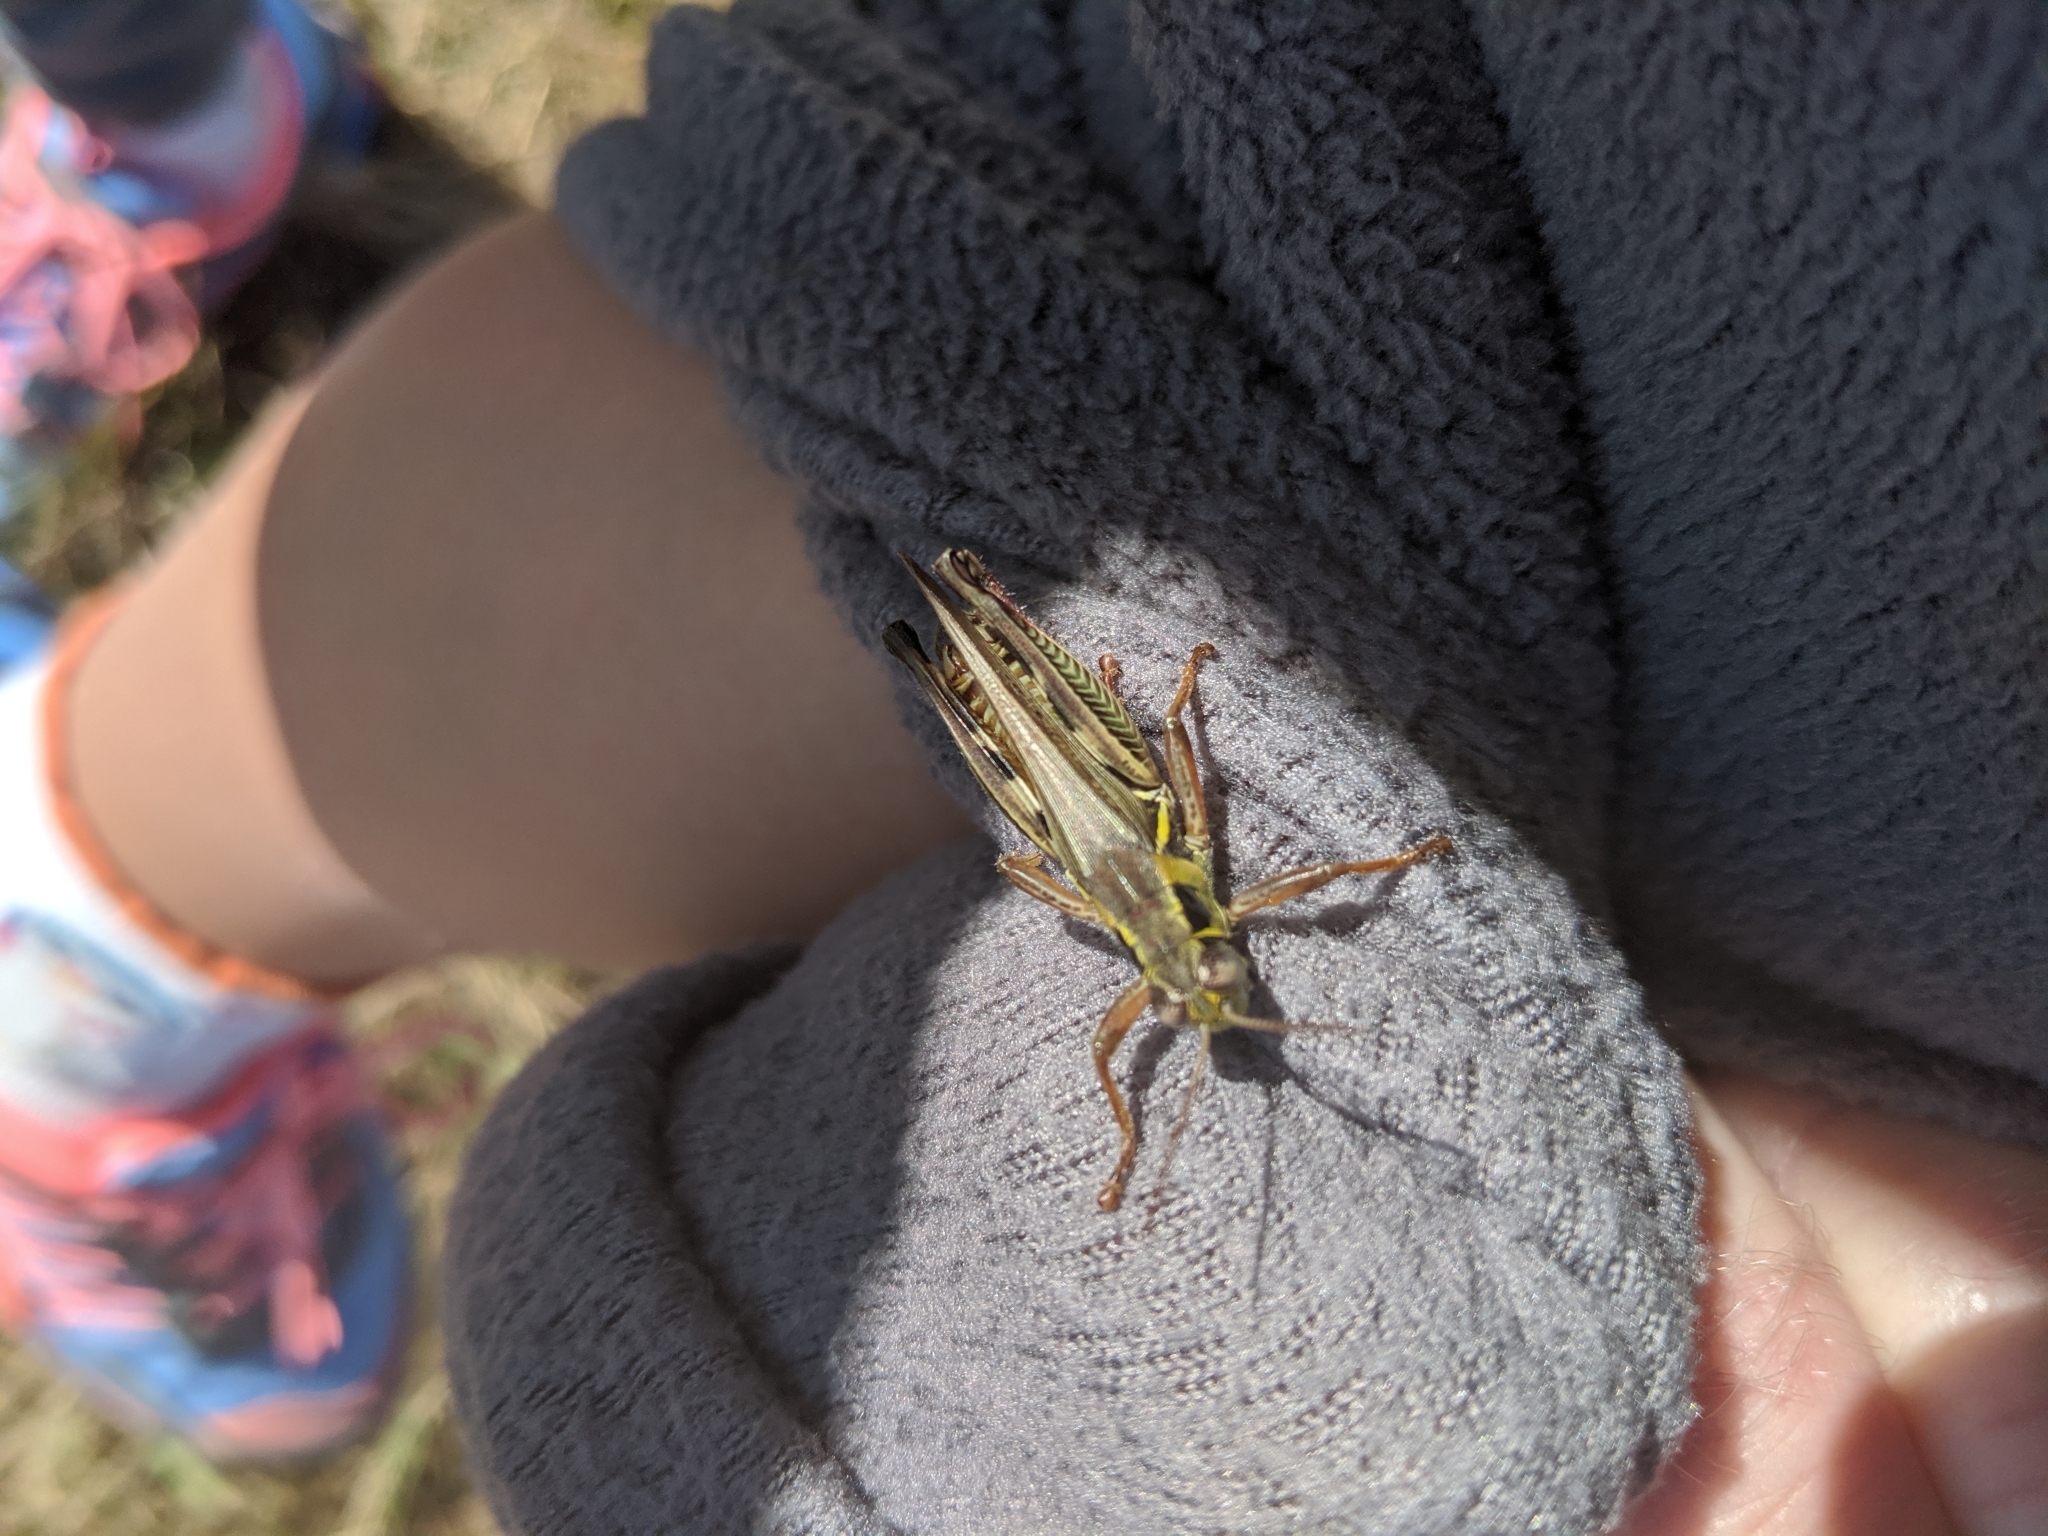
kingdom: Animalia
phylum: Arthropoda
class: Insecta
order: Orthoptera
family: Acrididae
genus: Melanoplus
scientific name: Melanoplus femurrubrum
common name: Red-legged grasshopper
